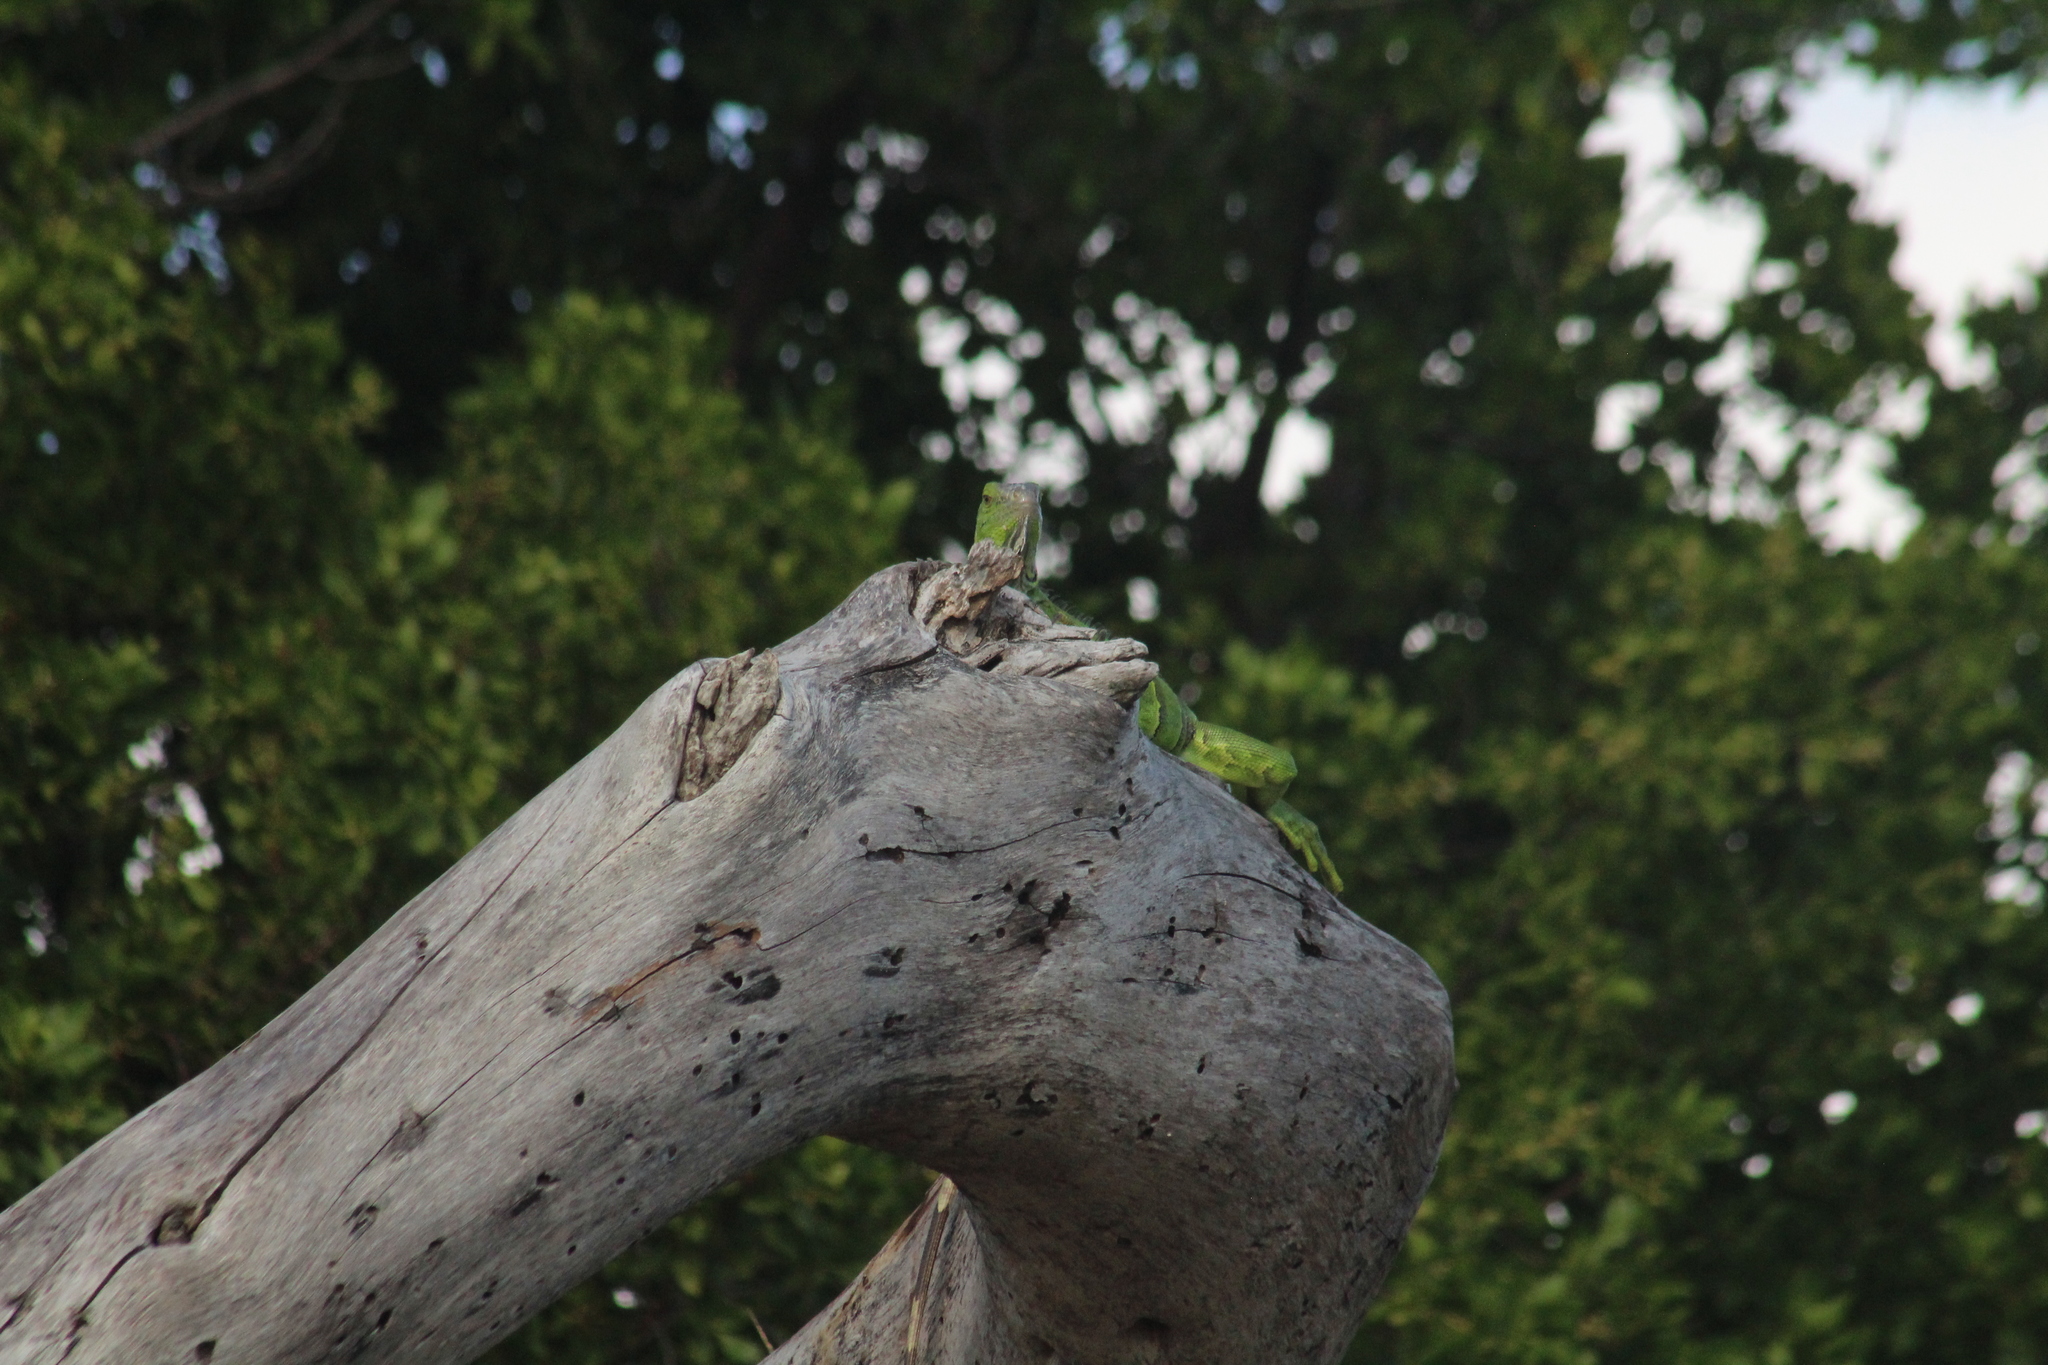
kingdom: Animalia
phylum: Chordata
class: Squamata
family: Iguanidae
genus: Iguana
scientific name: Iguana iguana
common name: Green iguana
